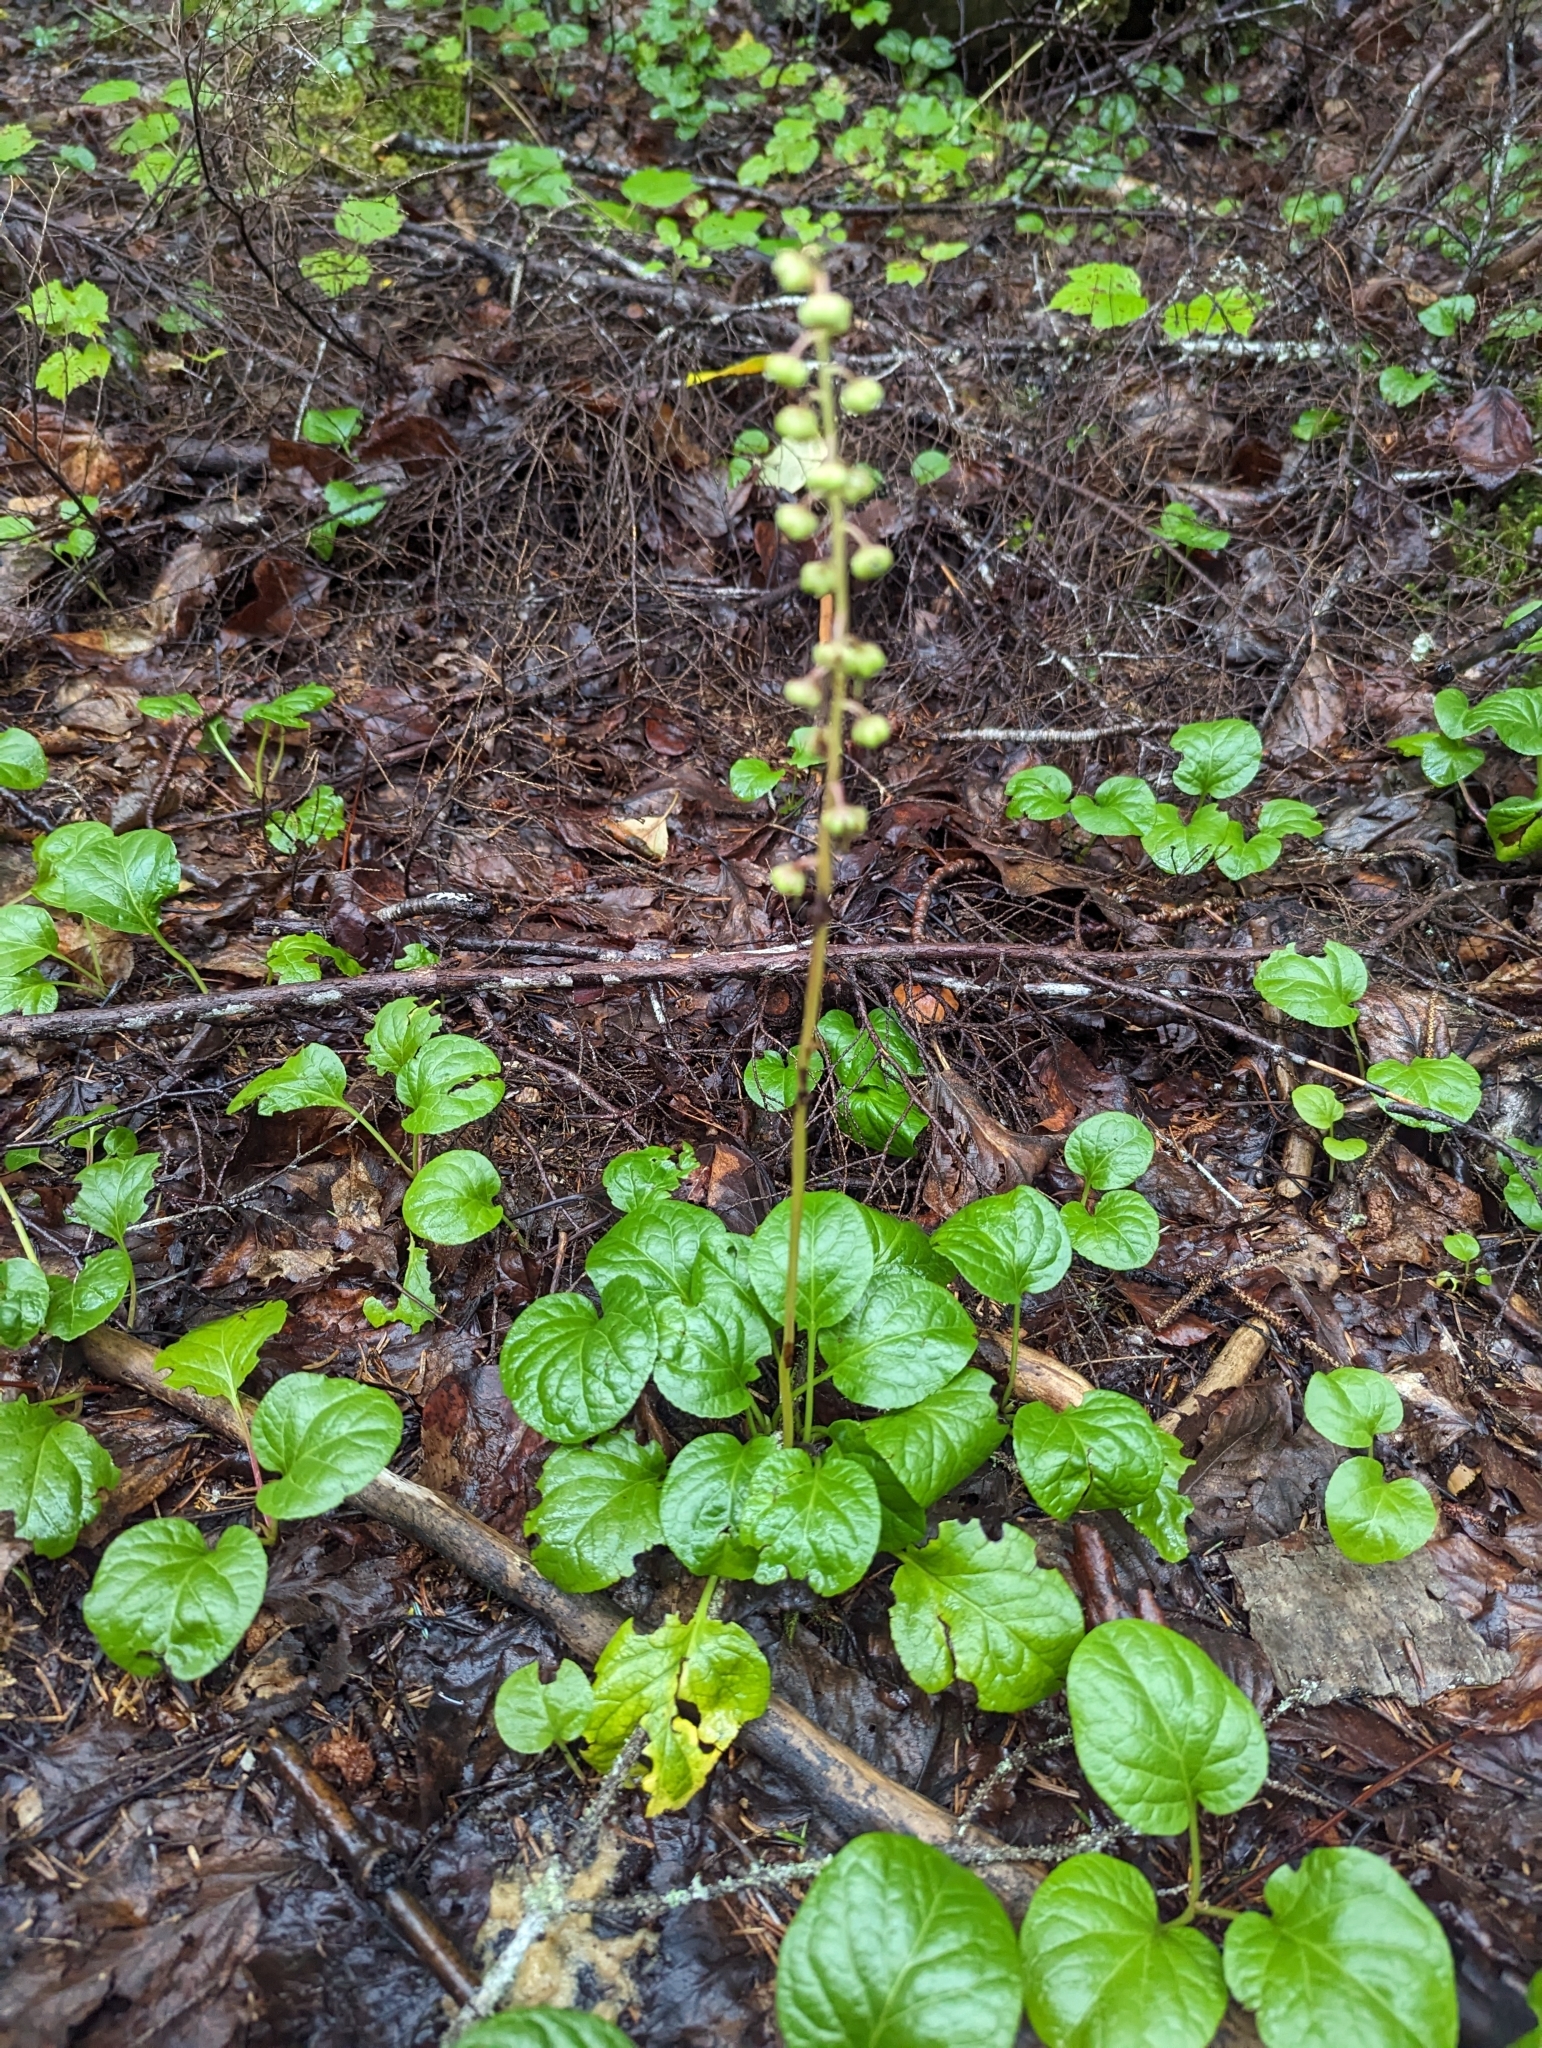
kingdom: Plantae
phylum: Tracheophyta
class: Magnoliopsida
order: Ericales
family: Ericaceae
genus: Pyrola
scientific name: Pyrola asarifolia
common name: Bog wintergreen
